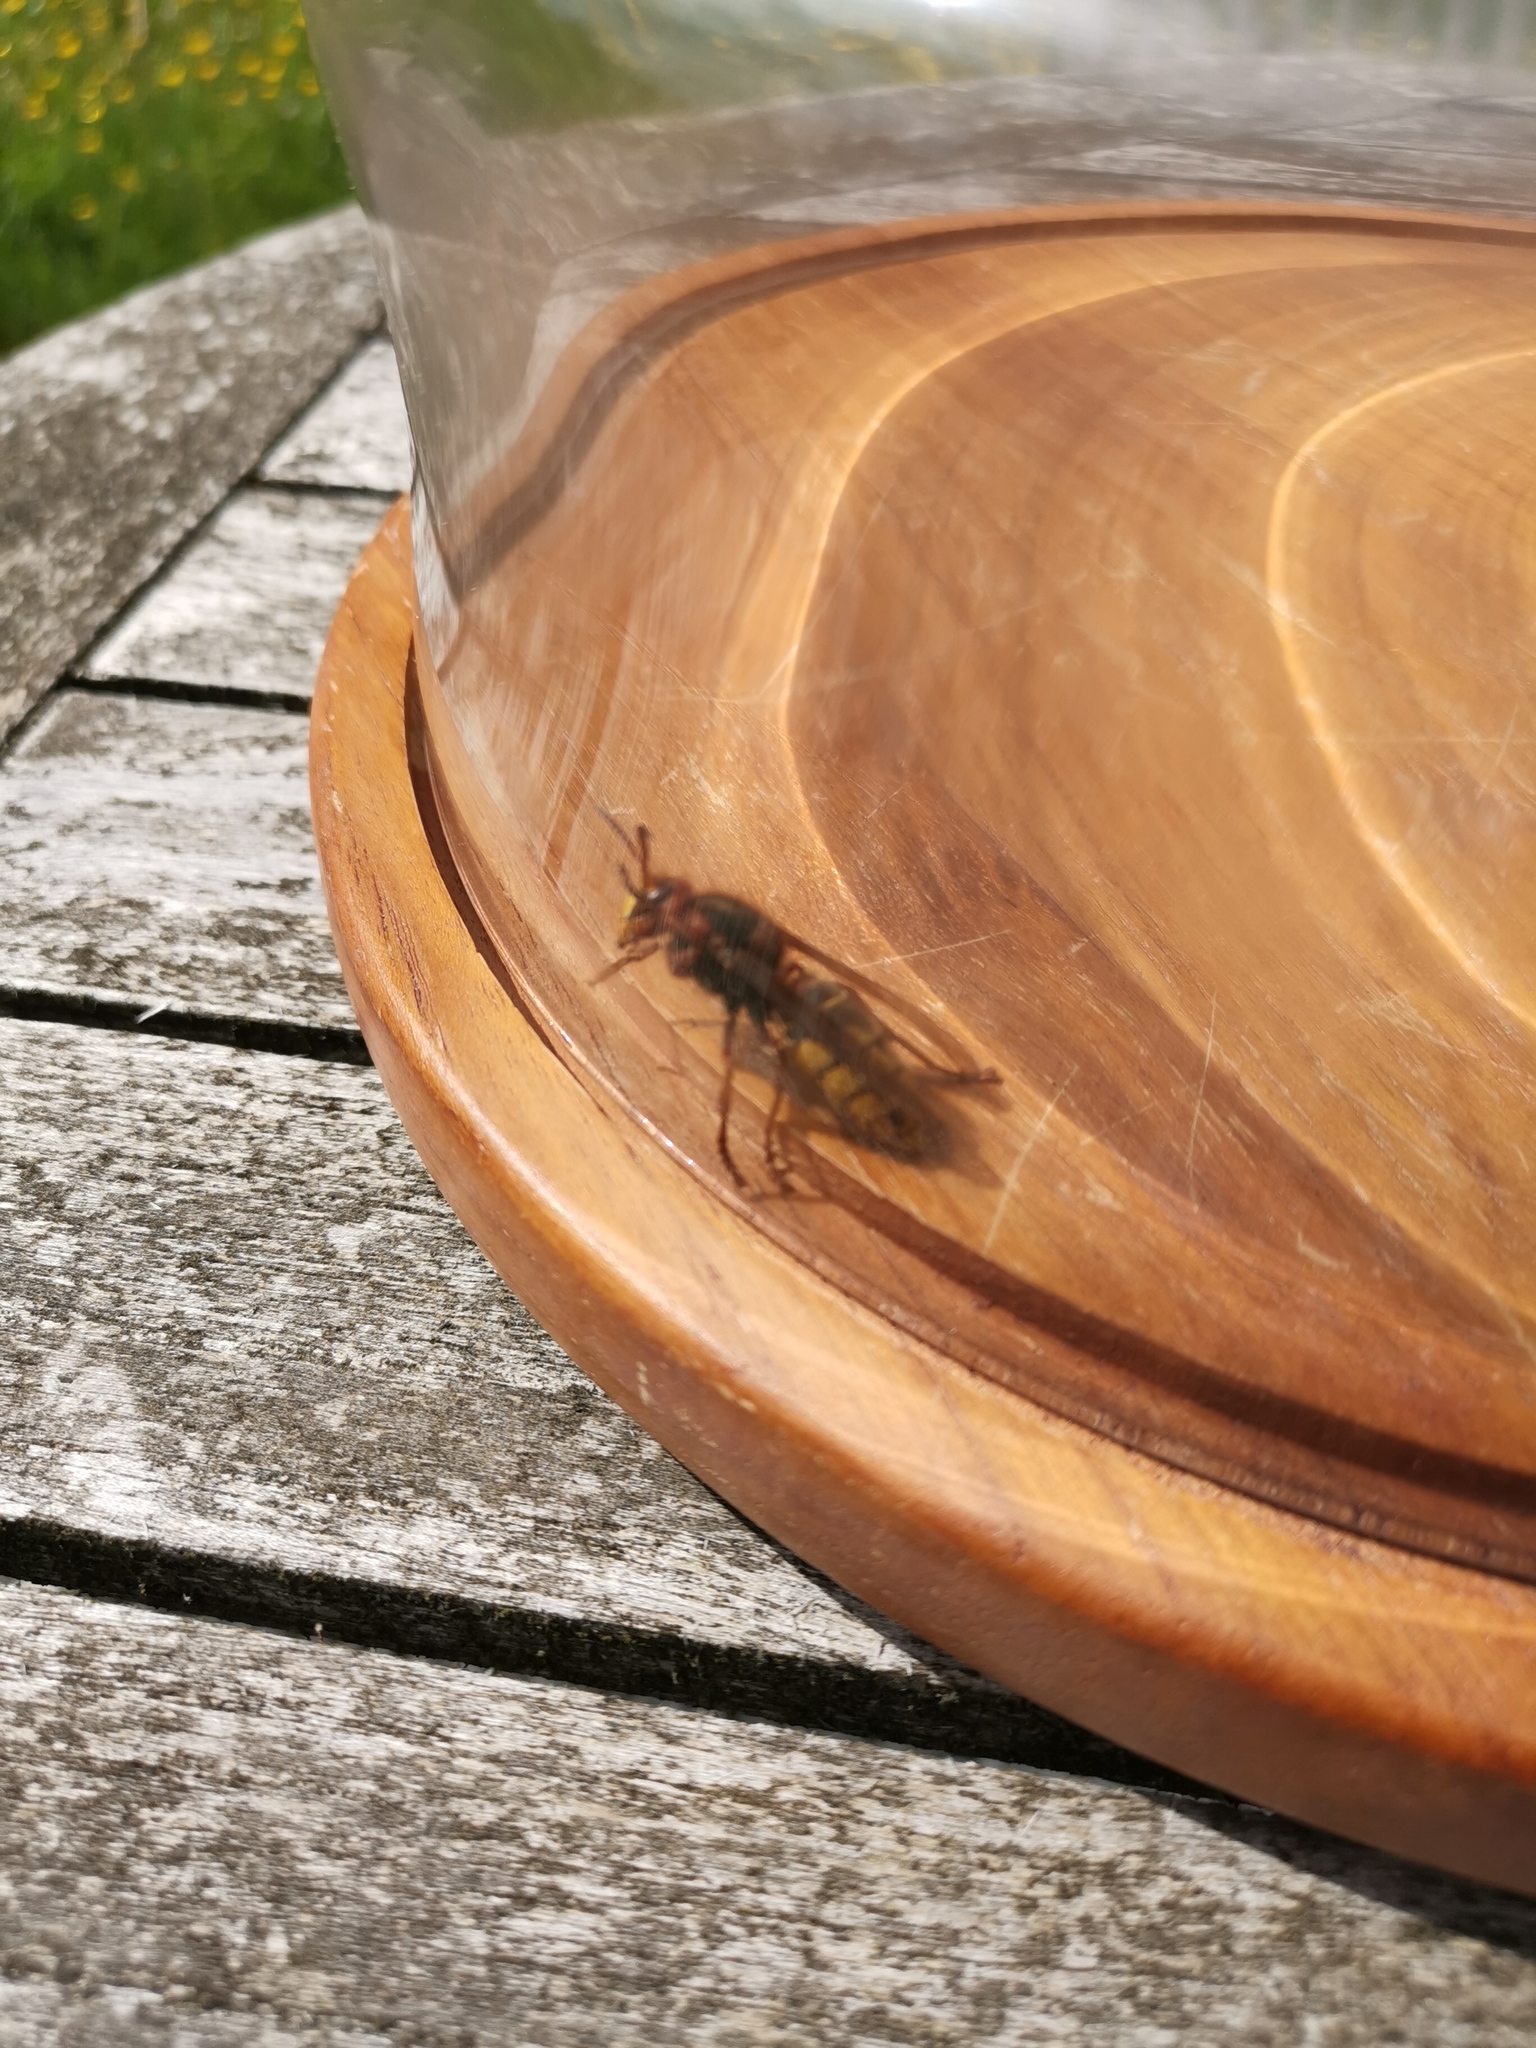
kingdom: Animalia
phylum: Arthropoda
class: Insecta
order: Hymenoptera
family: Vespidae
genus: Vespa
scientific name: Vespa crabro
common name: Hornet
